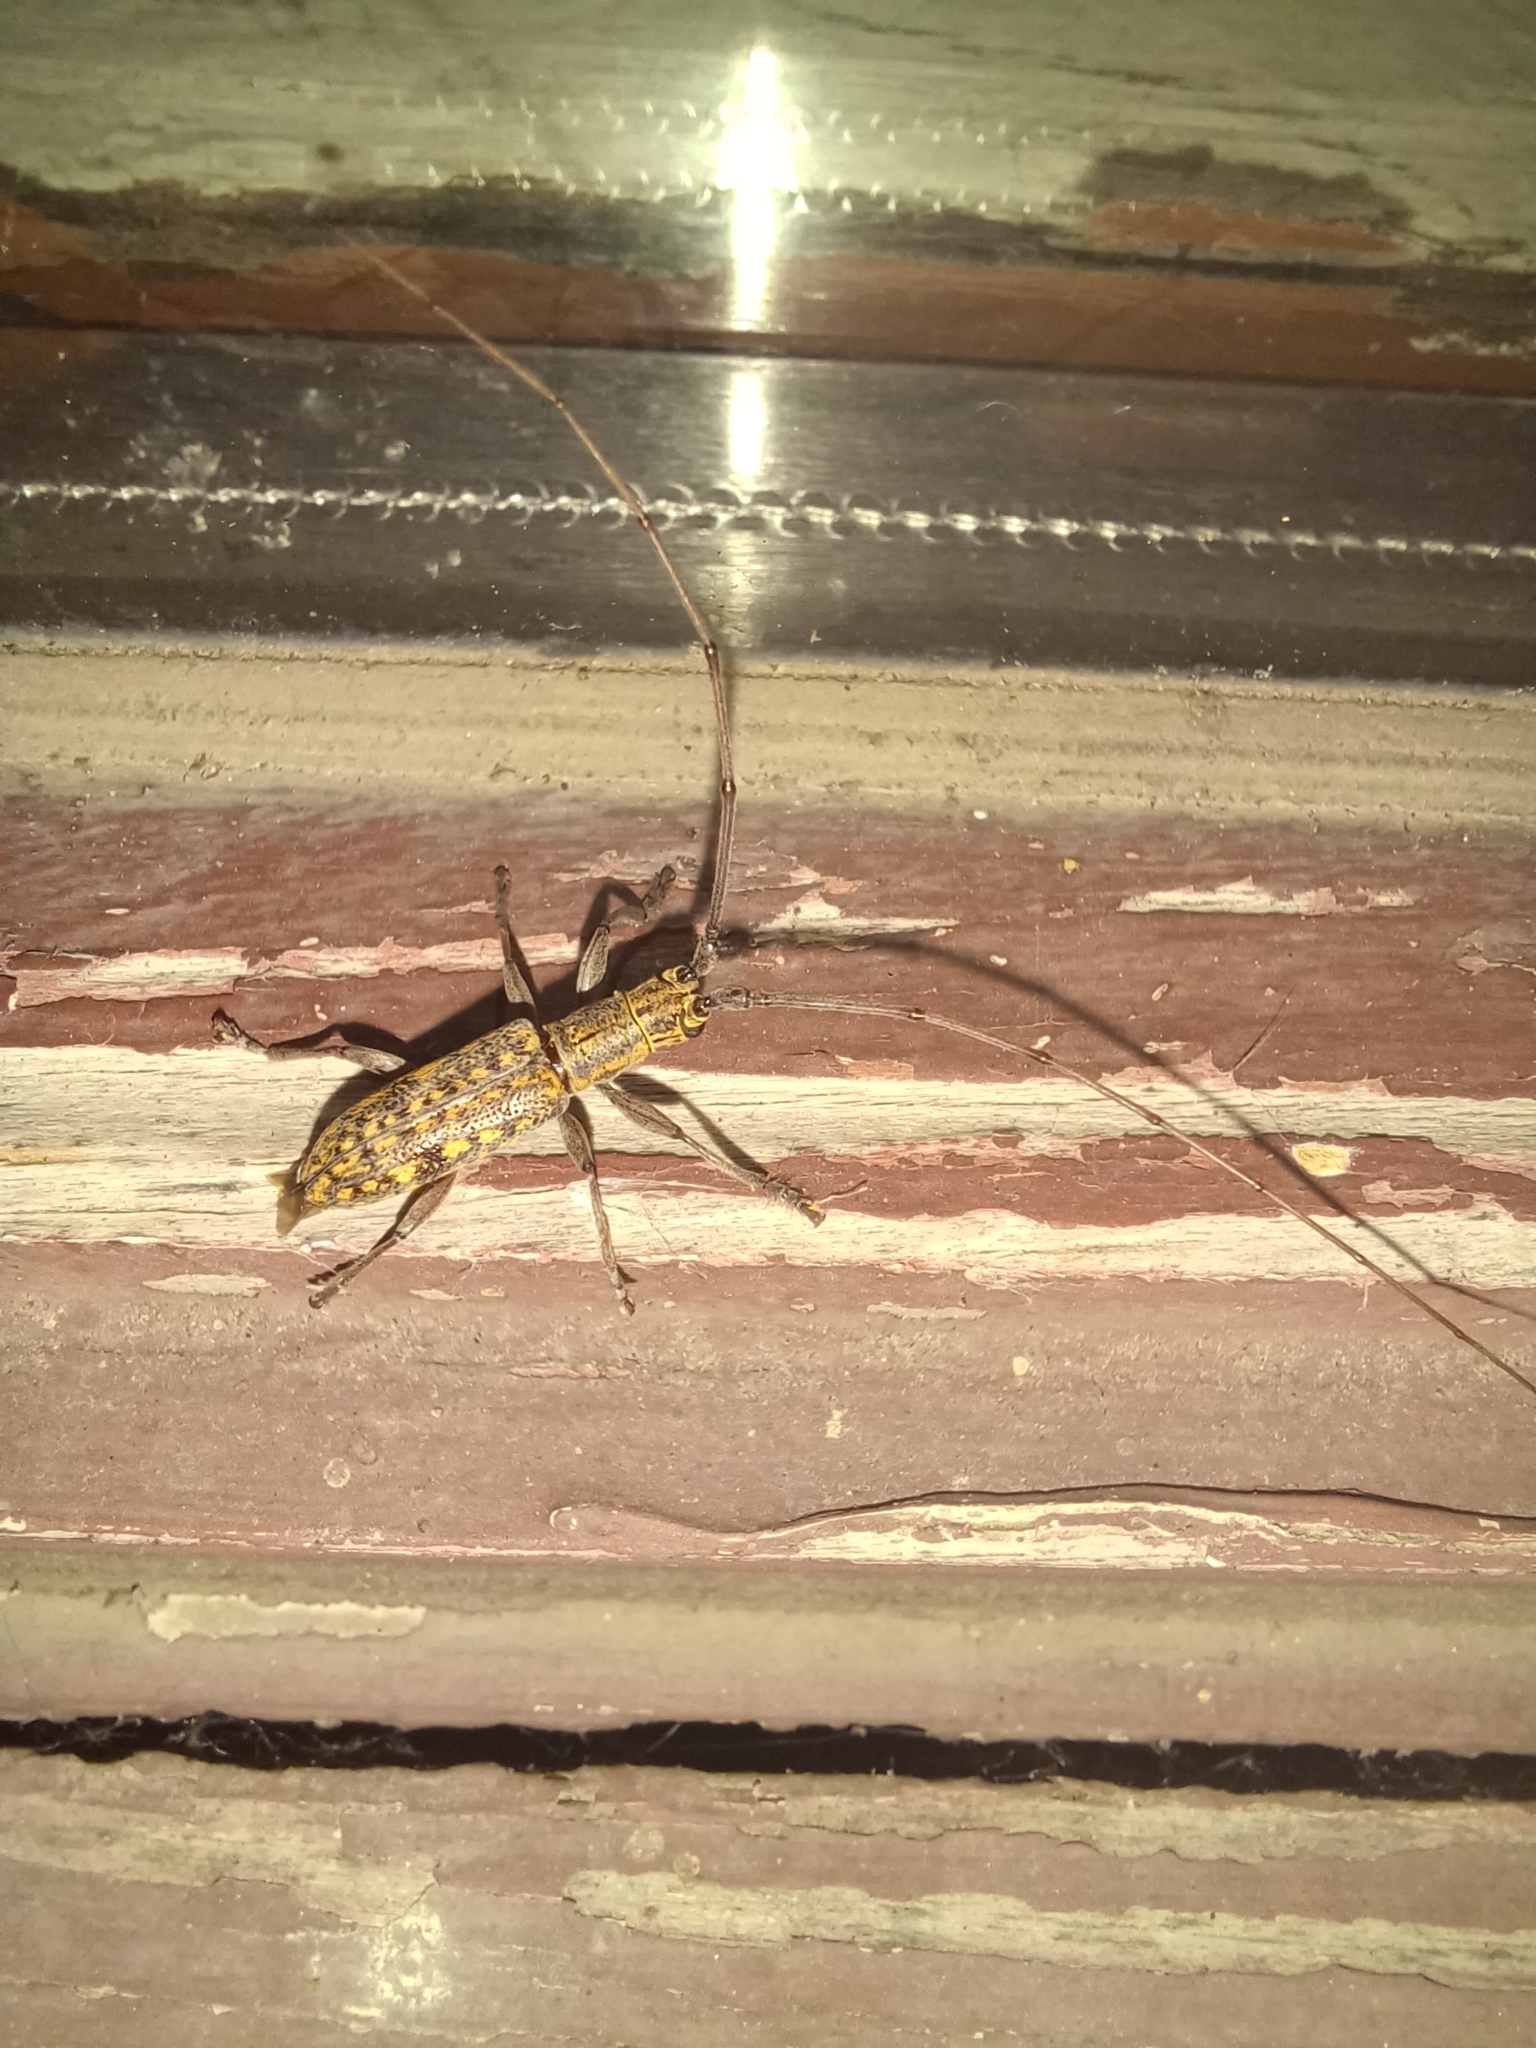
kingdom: Animalia
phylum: Arthropoda
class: Insecta
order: Coleoptera
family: Cerambycidae
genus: Dorcaschema
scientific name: Dorcaschema alternatum
